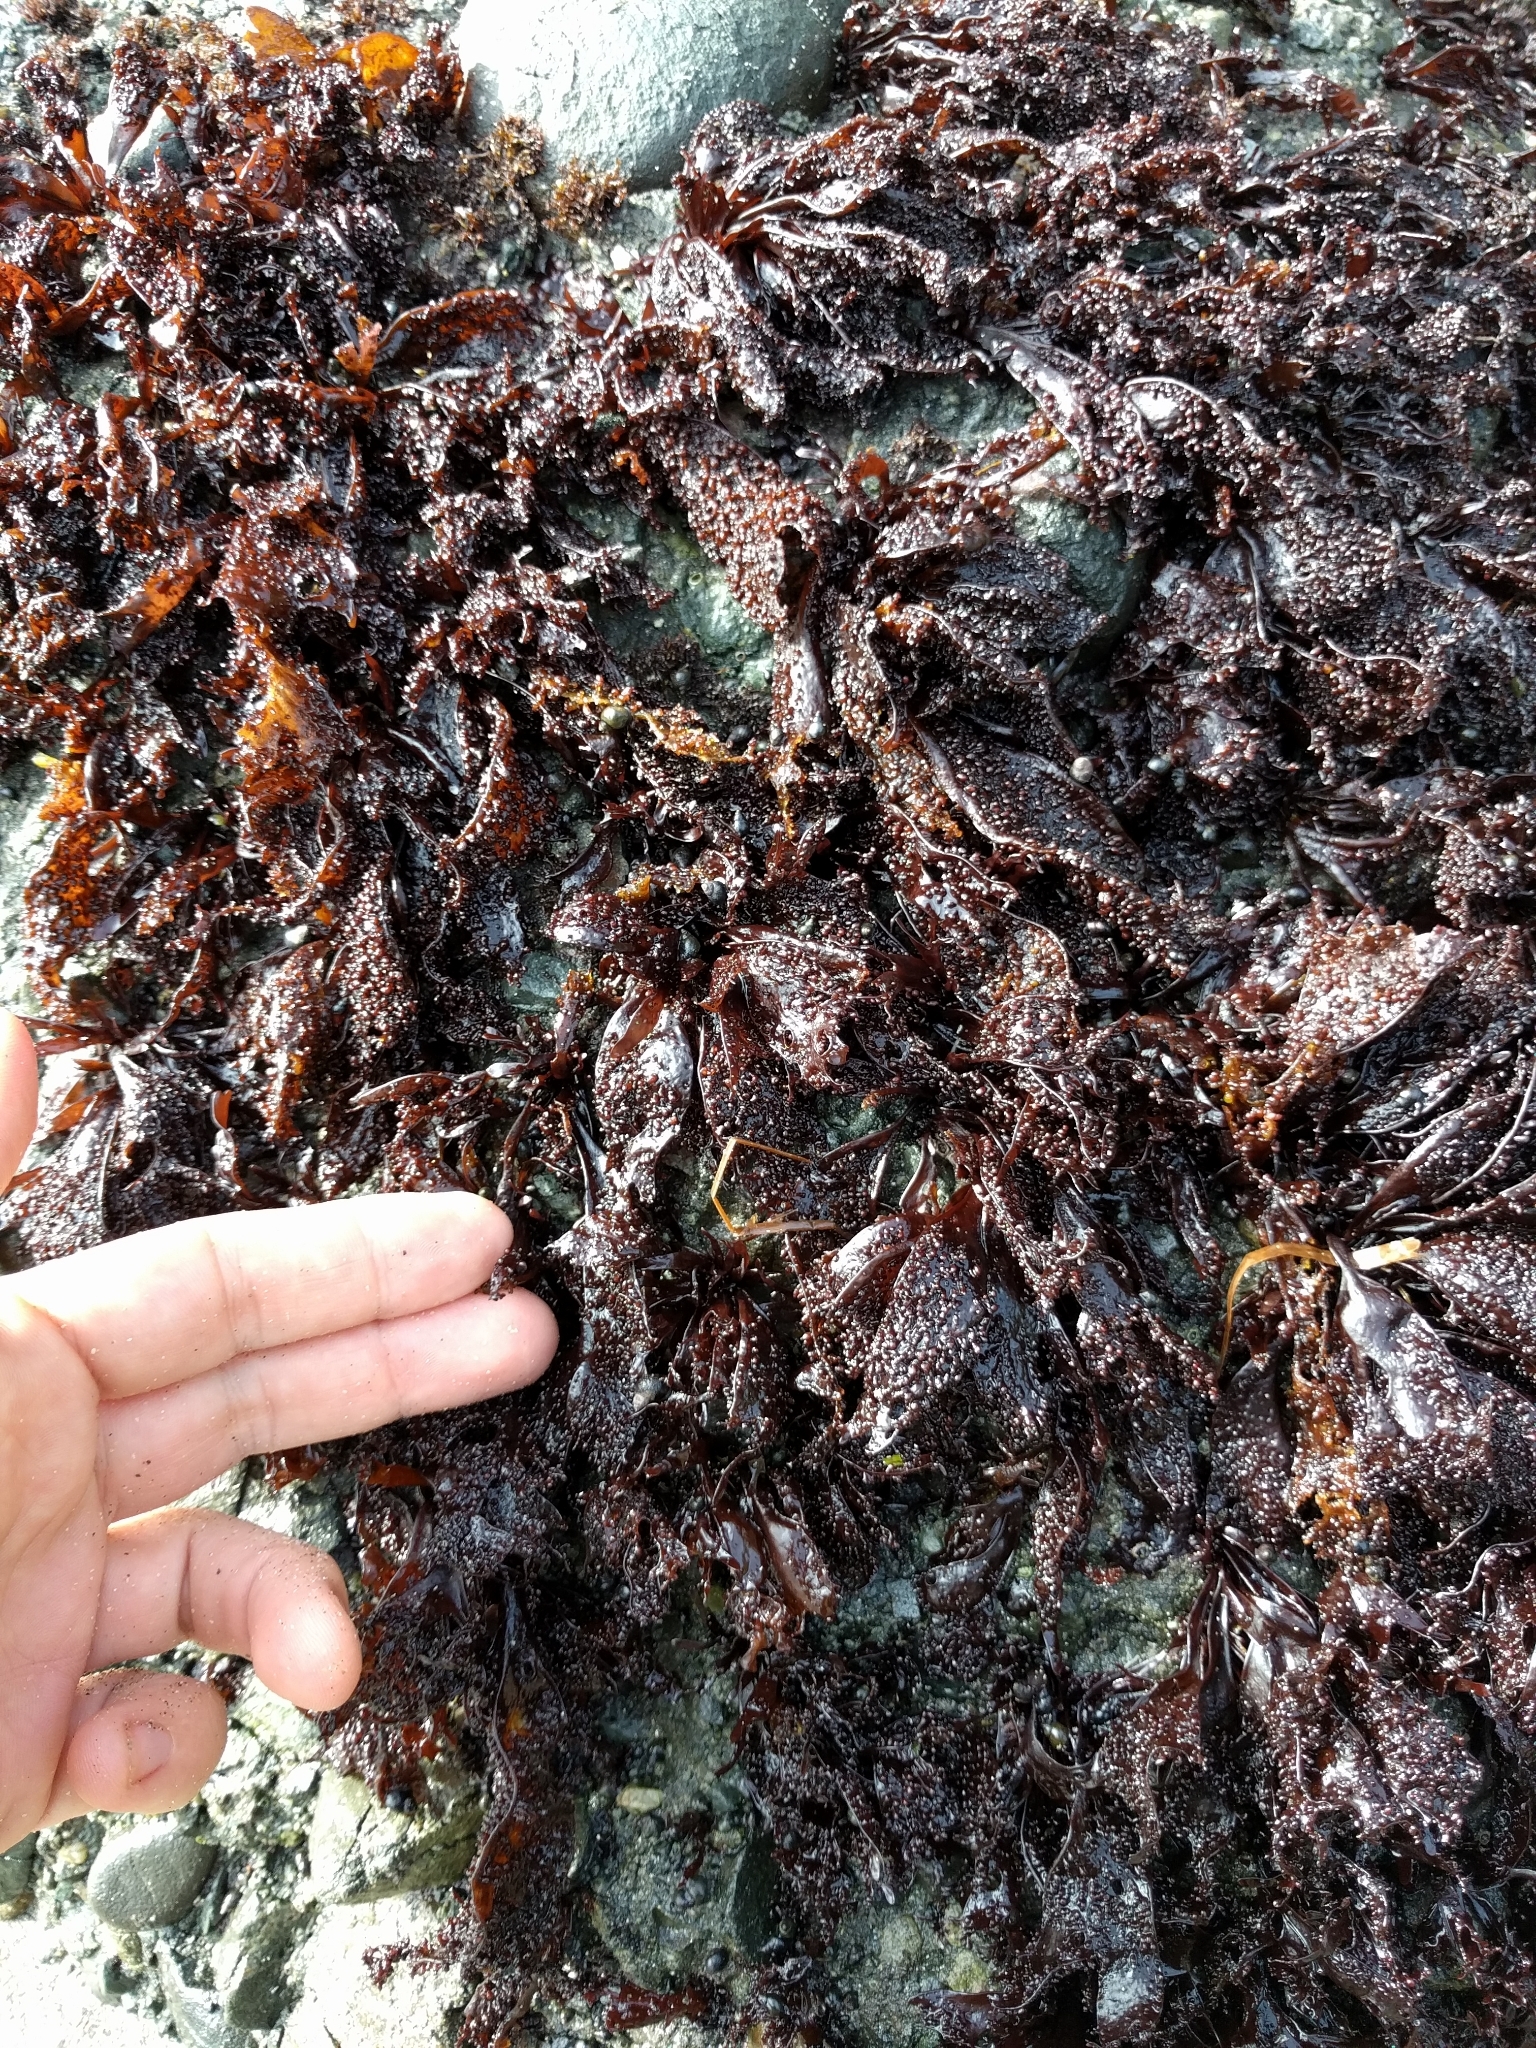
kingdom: Plantae
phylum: Rhodophyta
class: Florideophyceae
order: Gigartinales
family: Phyllophoraceae
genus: Mastocarpus
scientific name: Mastocarpus papillatus
